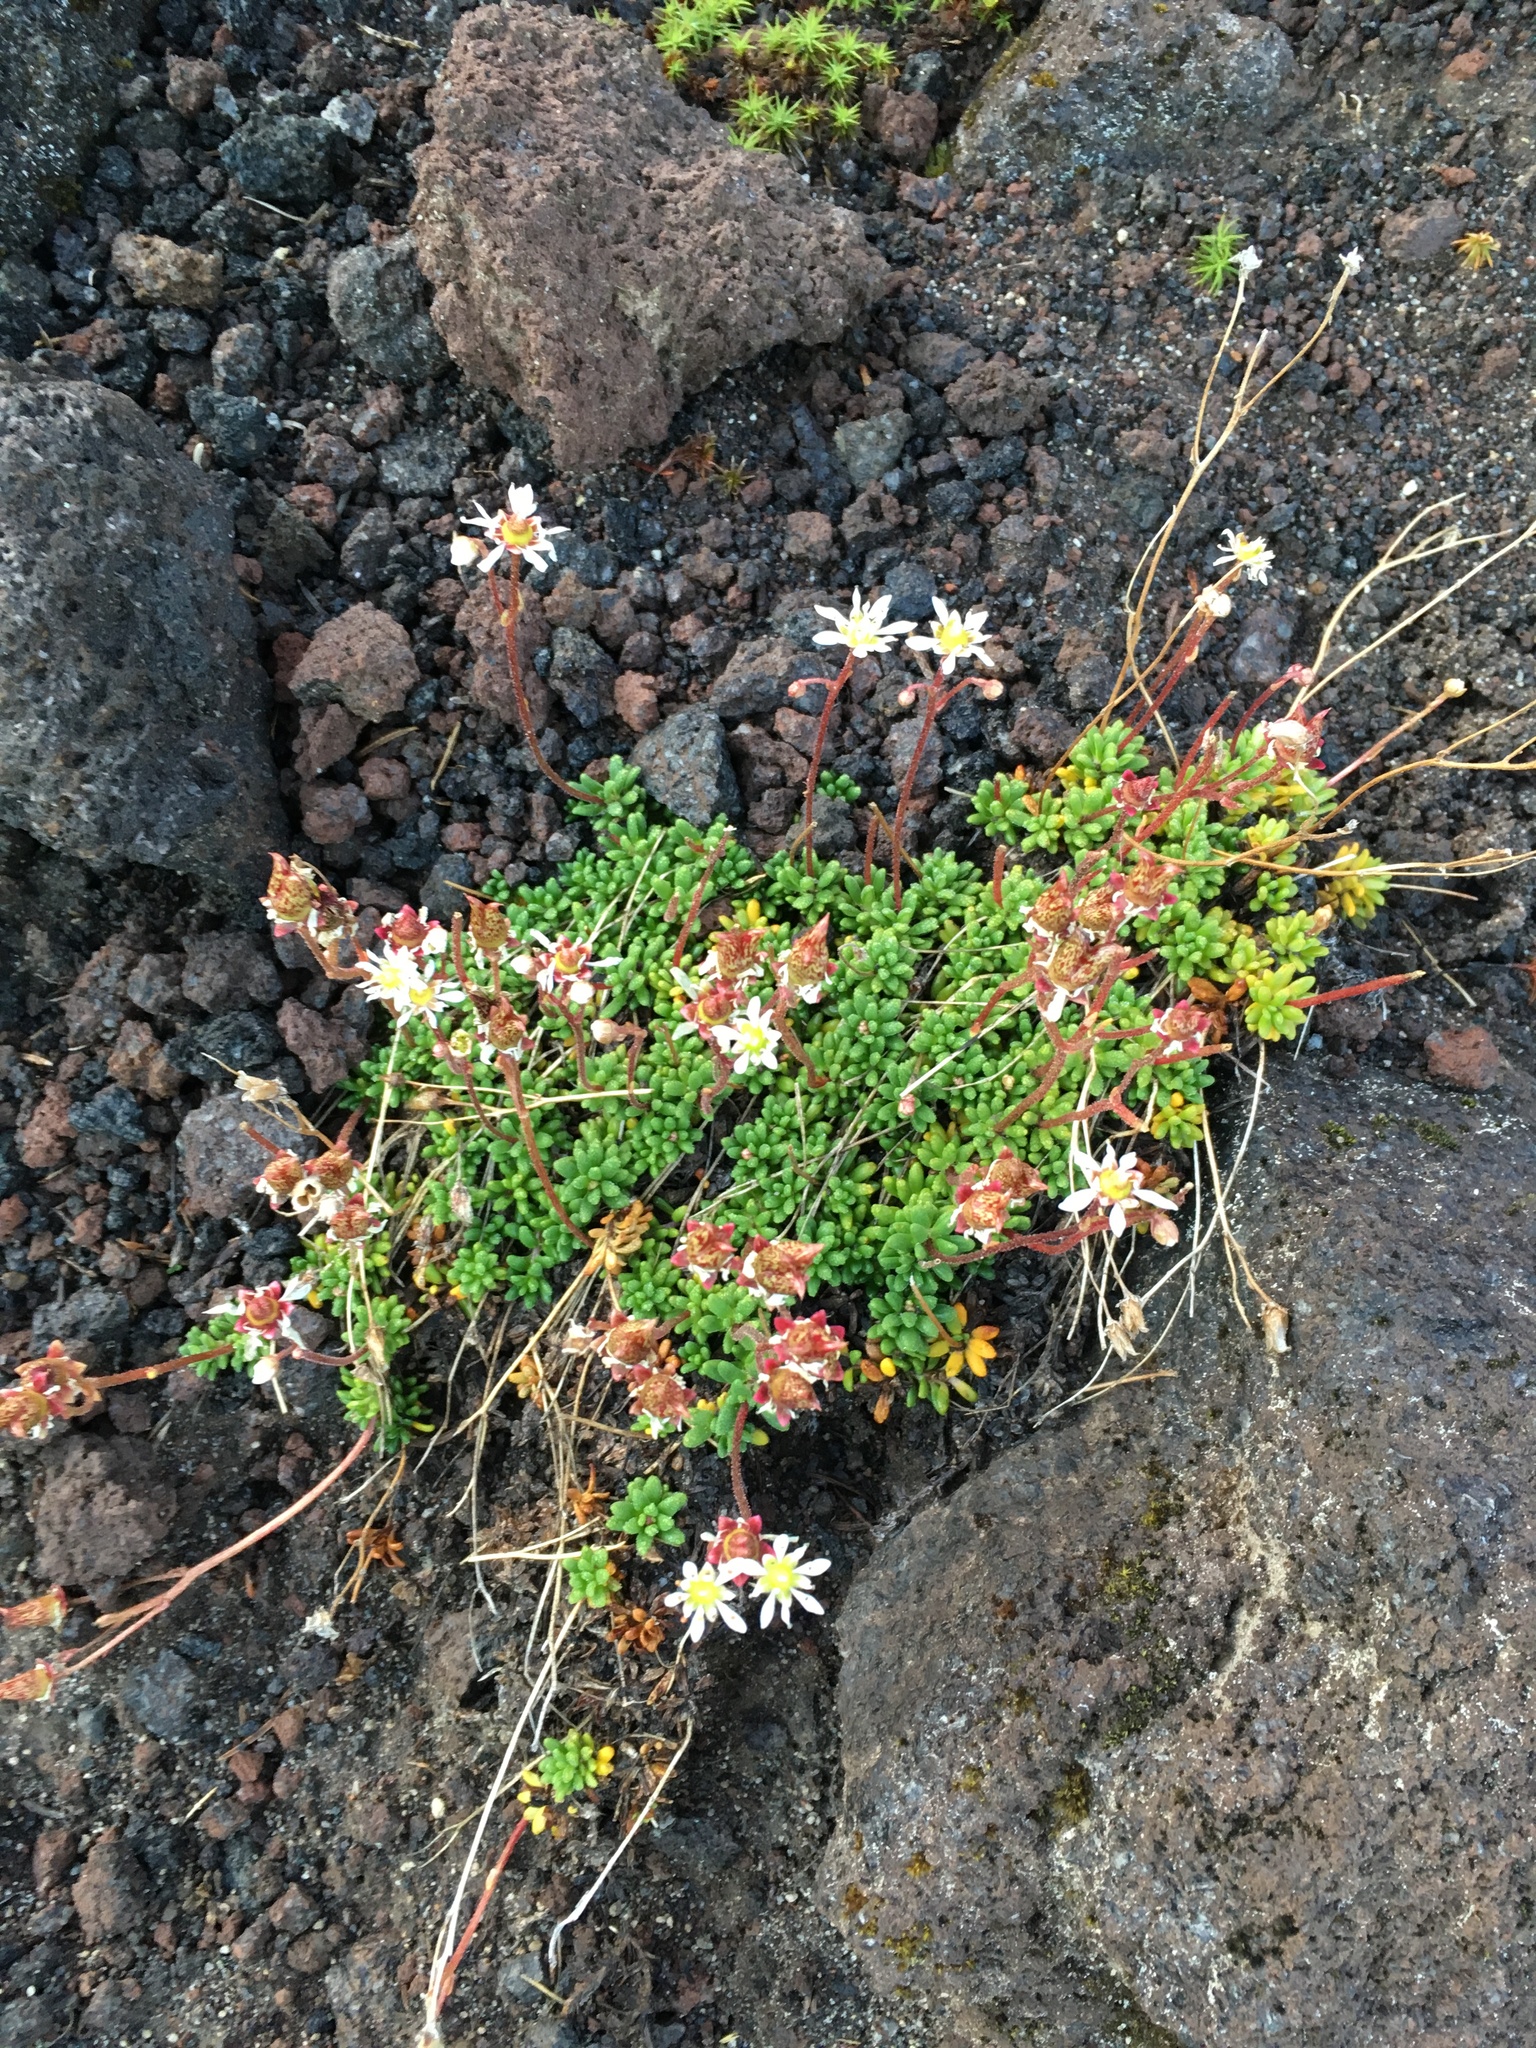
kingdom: Plantae
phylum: Tracheophyta
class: Magnoliopsida
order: Saxifragales
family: Saxifragaceae
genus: Micranthes
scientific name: Micranthes tolmiei
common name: Tolmie's saxifrage
